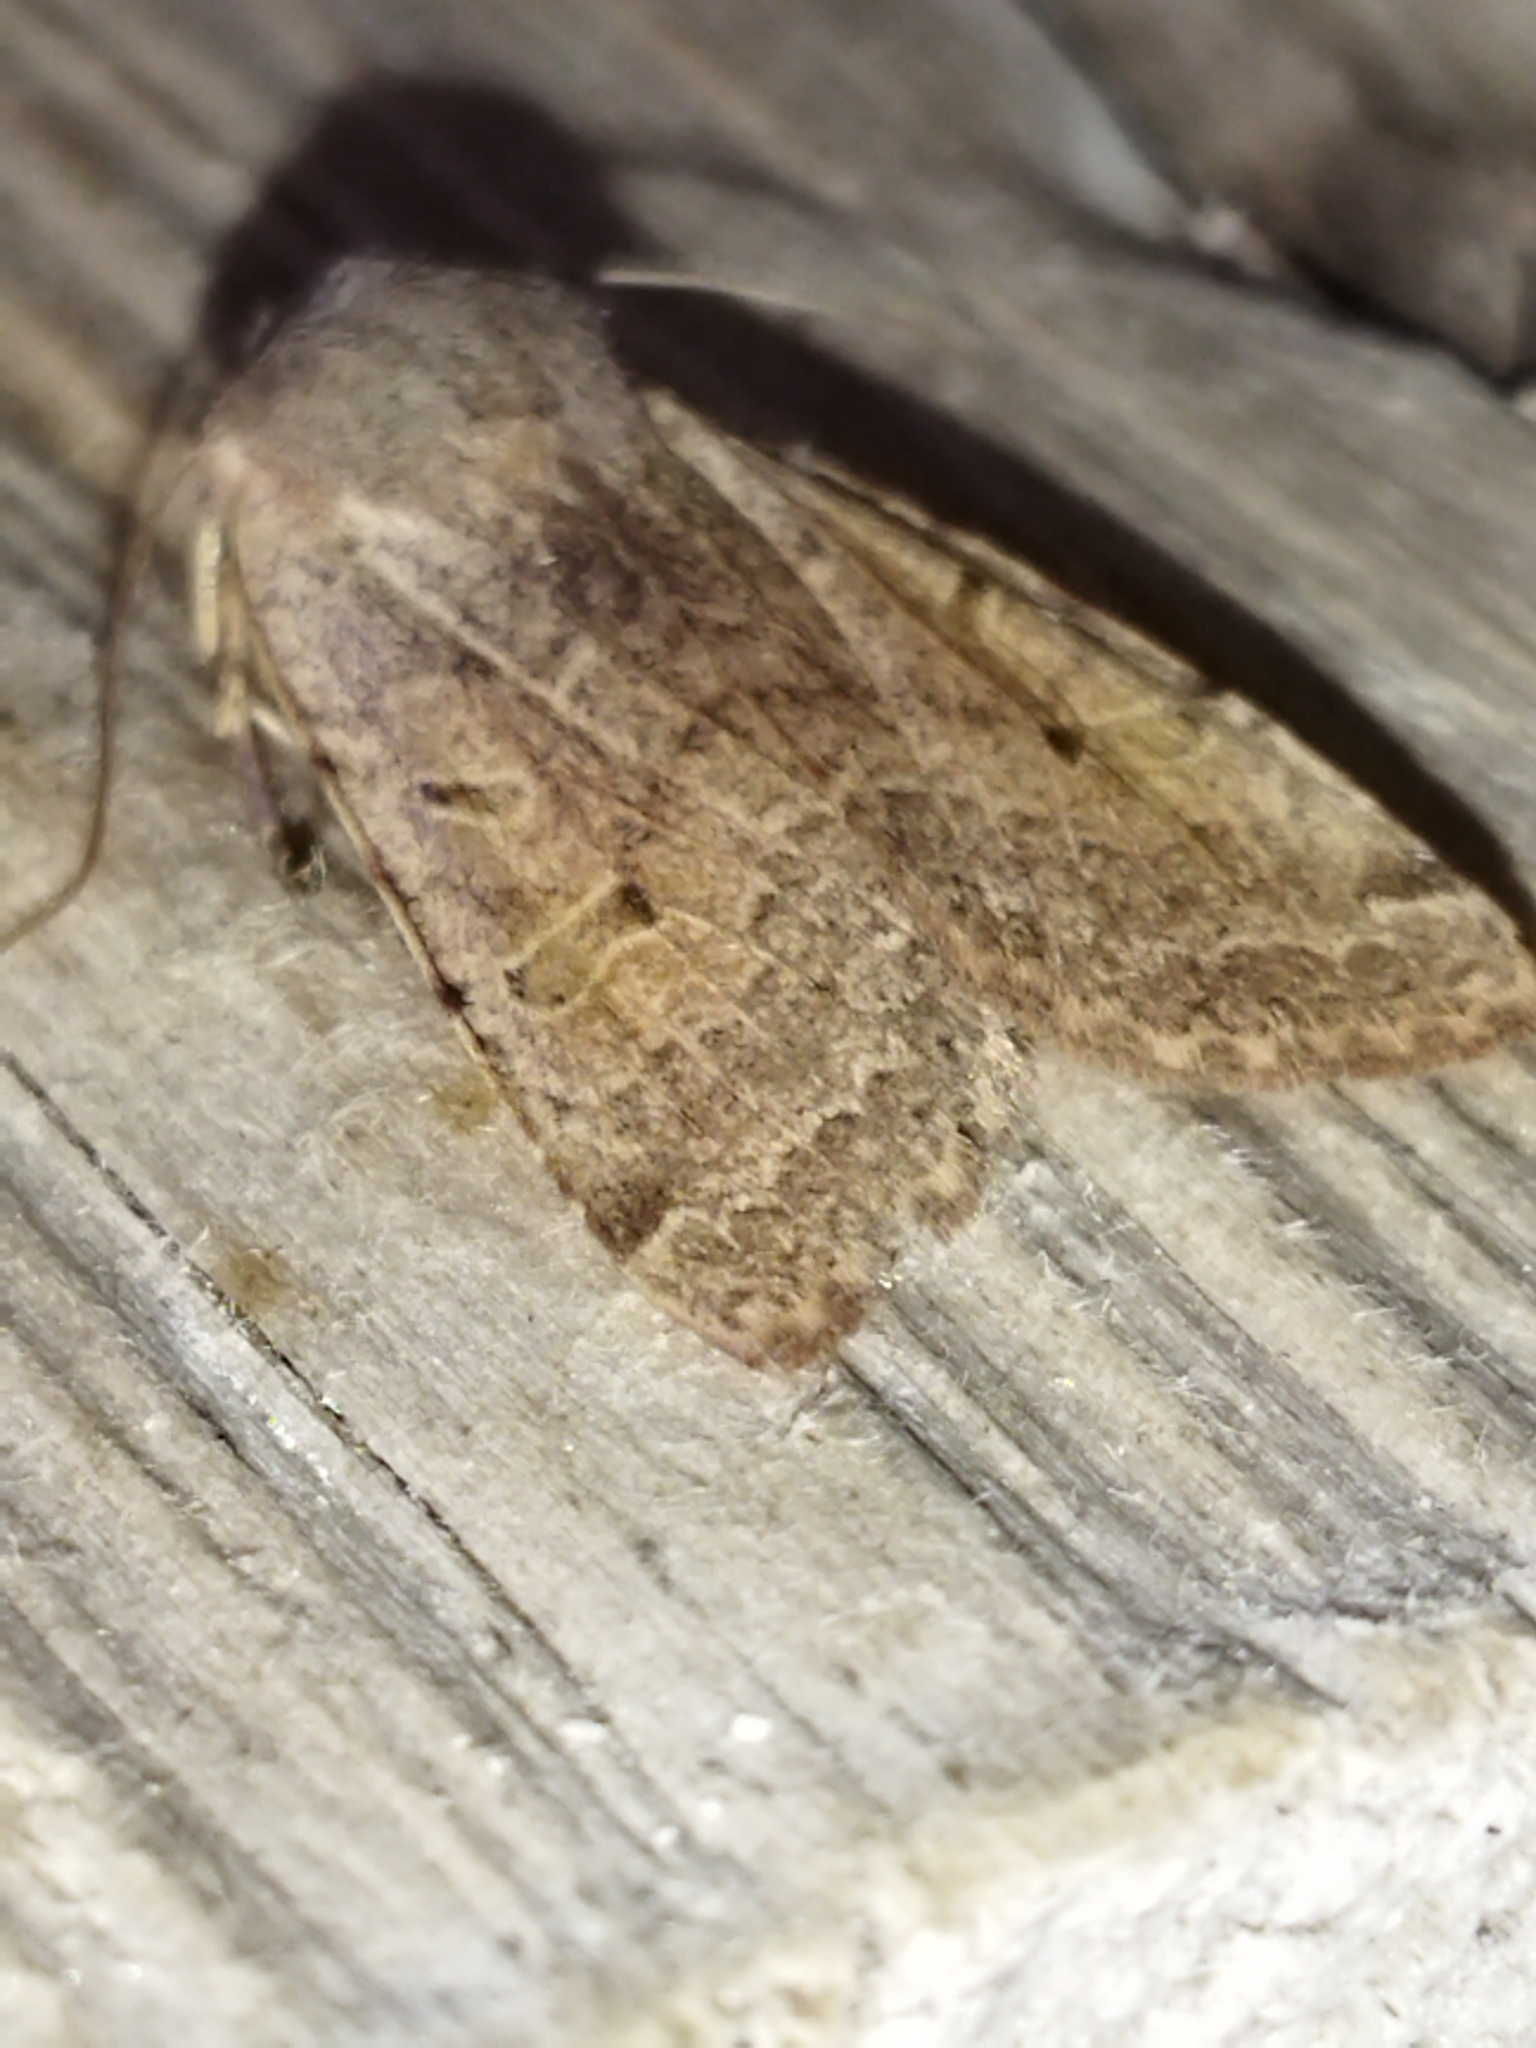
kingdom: Animalia
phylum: Arthropoda
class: Insecta
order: Lepidoptera
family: Noctuidae
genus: Agrochola
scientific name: Agrochola lychnidis
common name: Beaded chestnut
